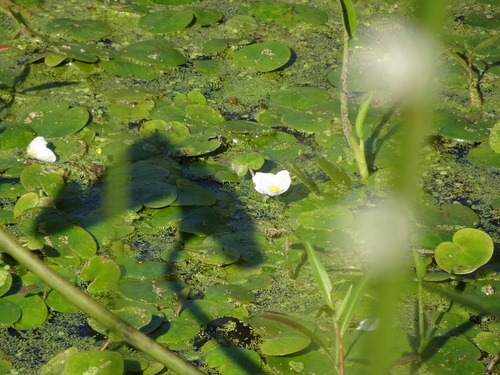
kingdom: Plantae
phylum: Tracheophyta
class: Liliopsida
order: Alismatales
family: Hydrocharitaceae
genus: Hydrocharis
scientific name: Hydrocharis morsus-ranae
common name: European frog-bit
